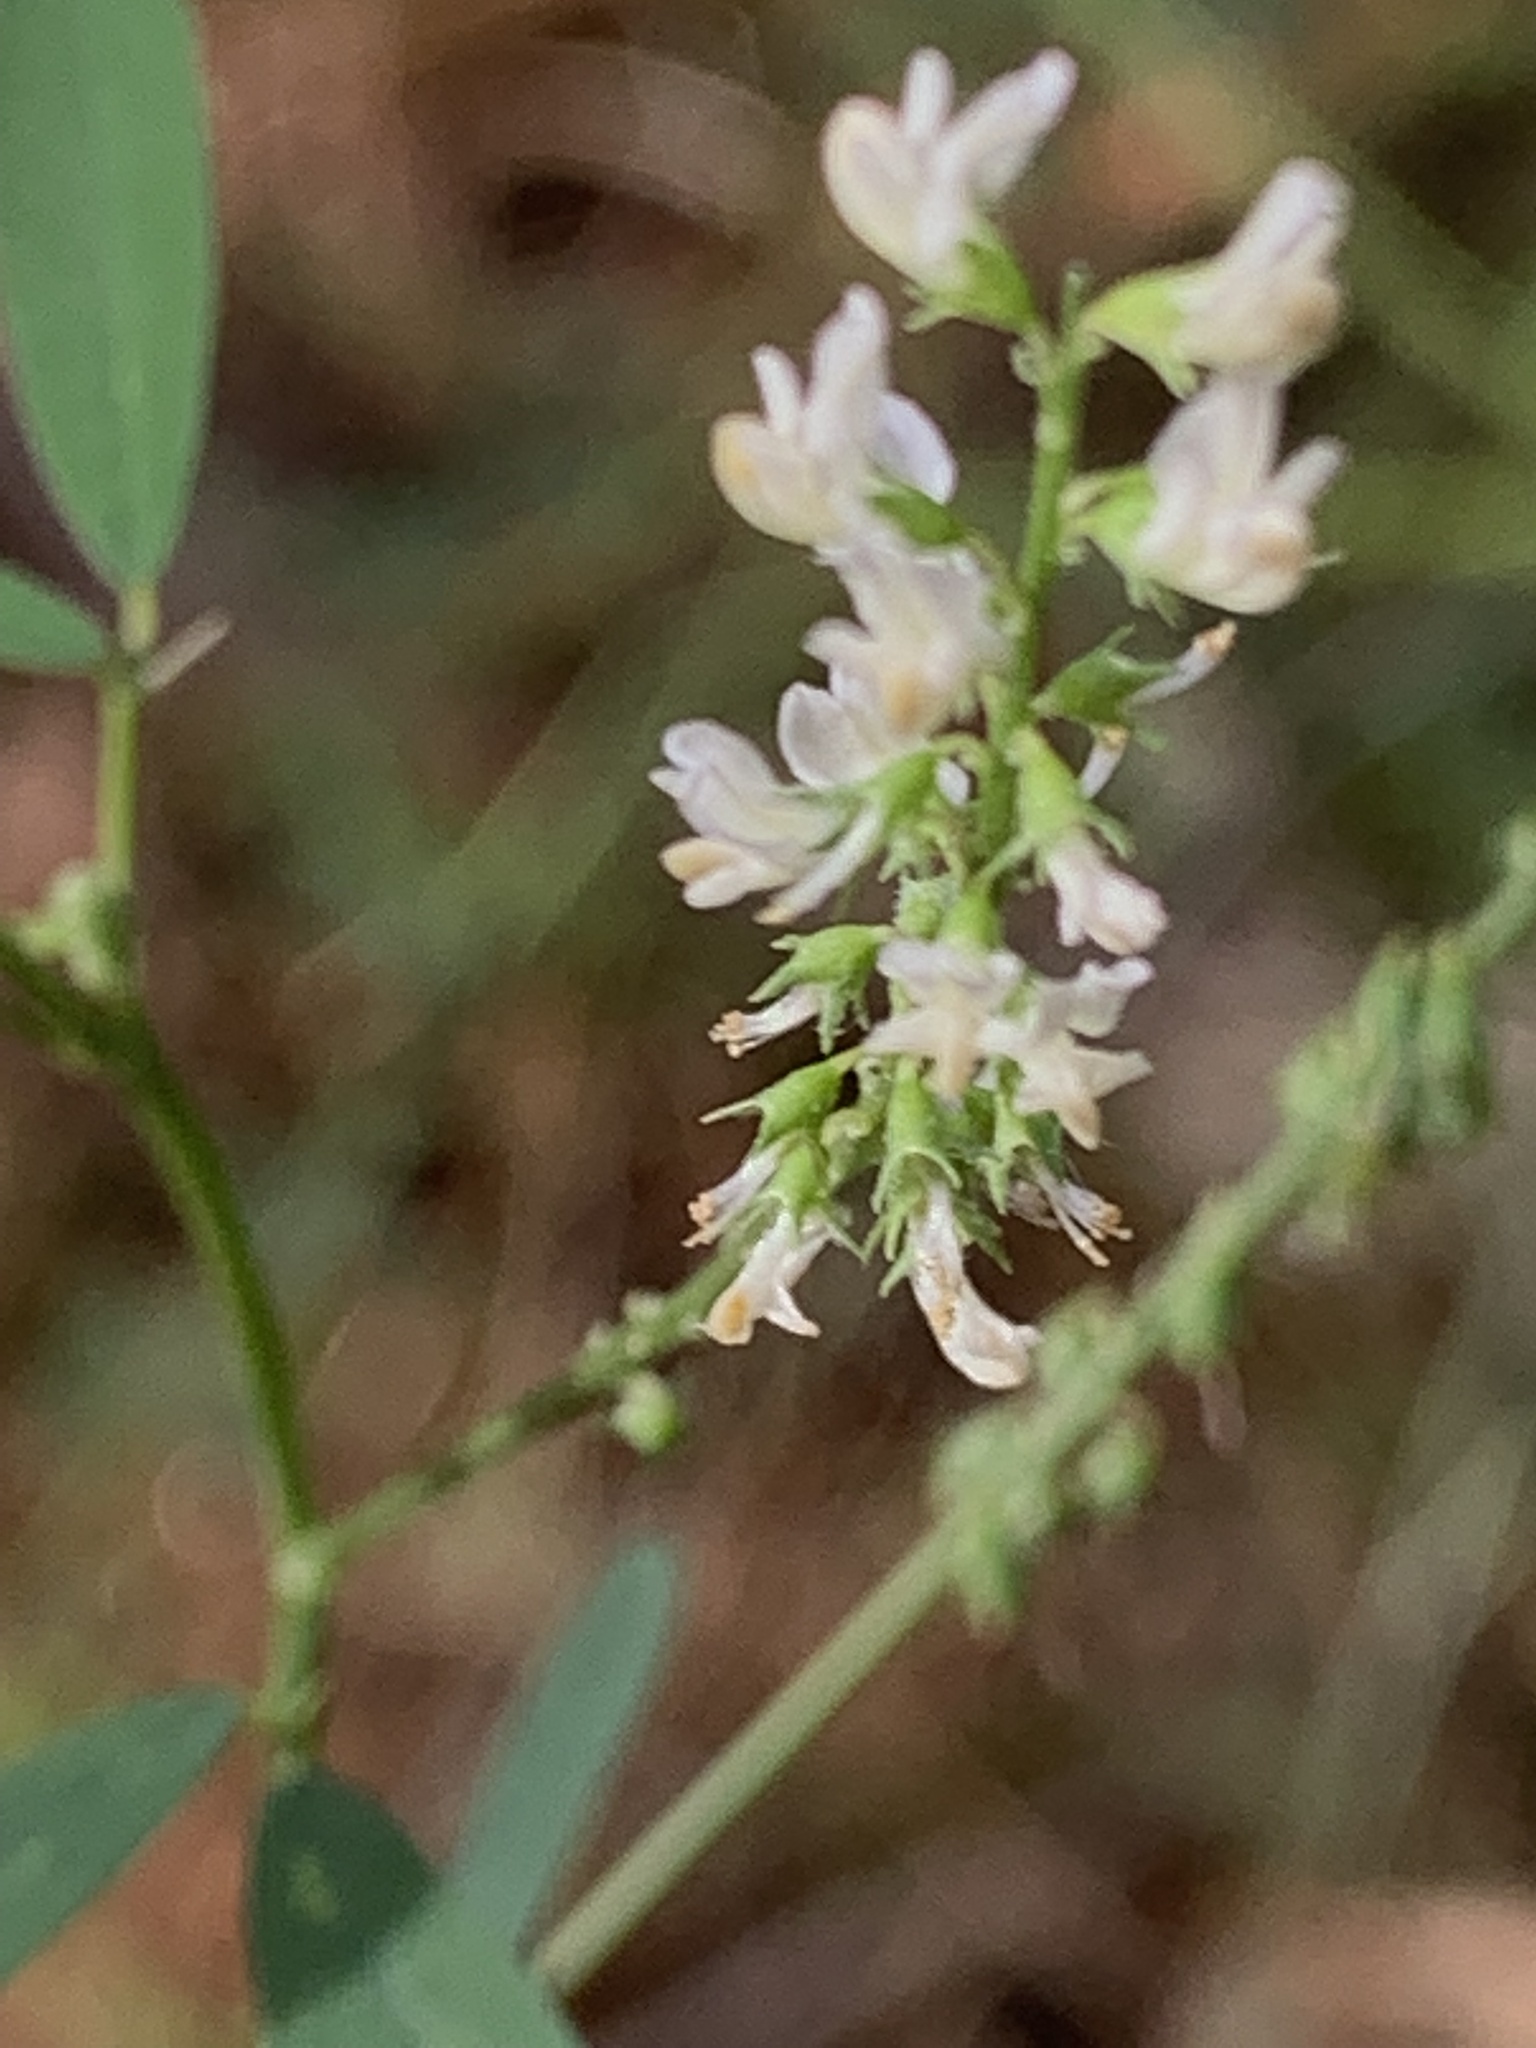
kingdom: Plantae
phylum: Tracheophyta
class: Magnoliopsida
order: Fabales
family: Fabaceae
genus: Melilotus
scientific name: Melilotus albus
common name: White melilot
